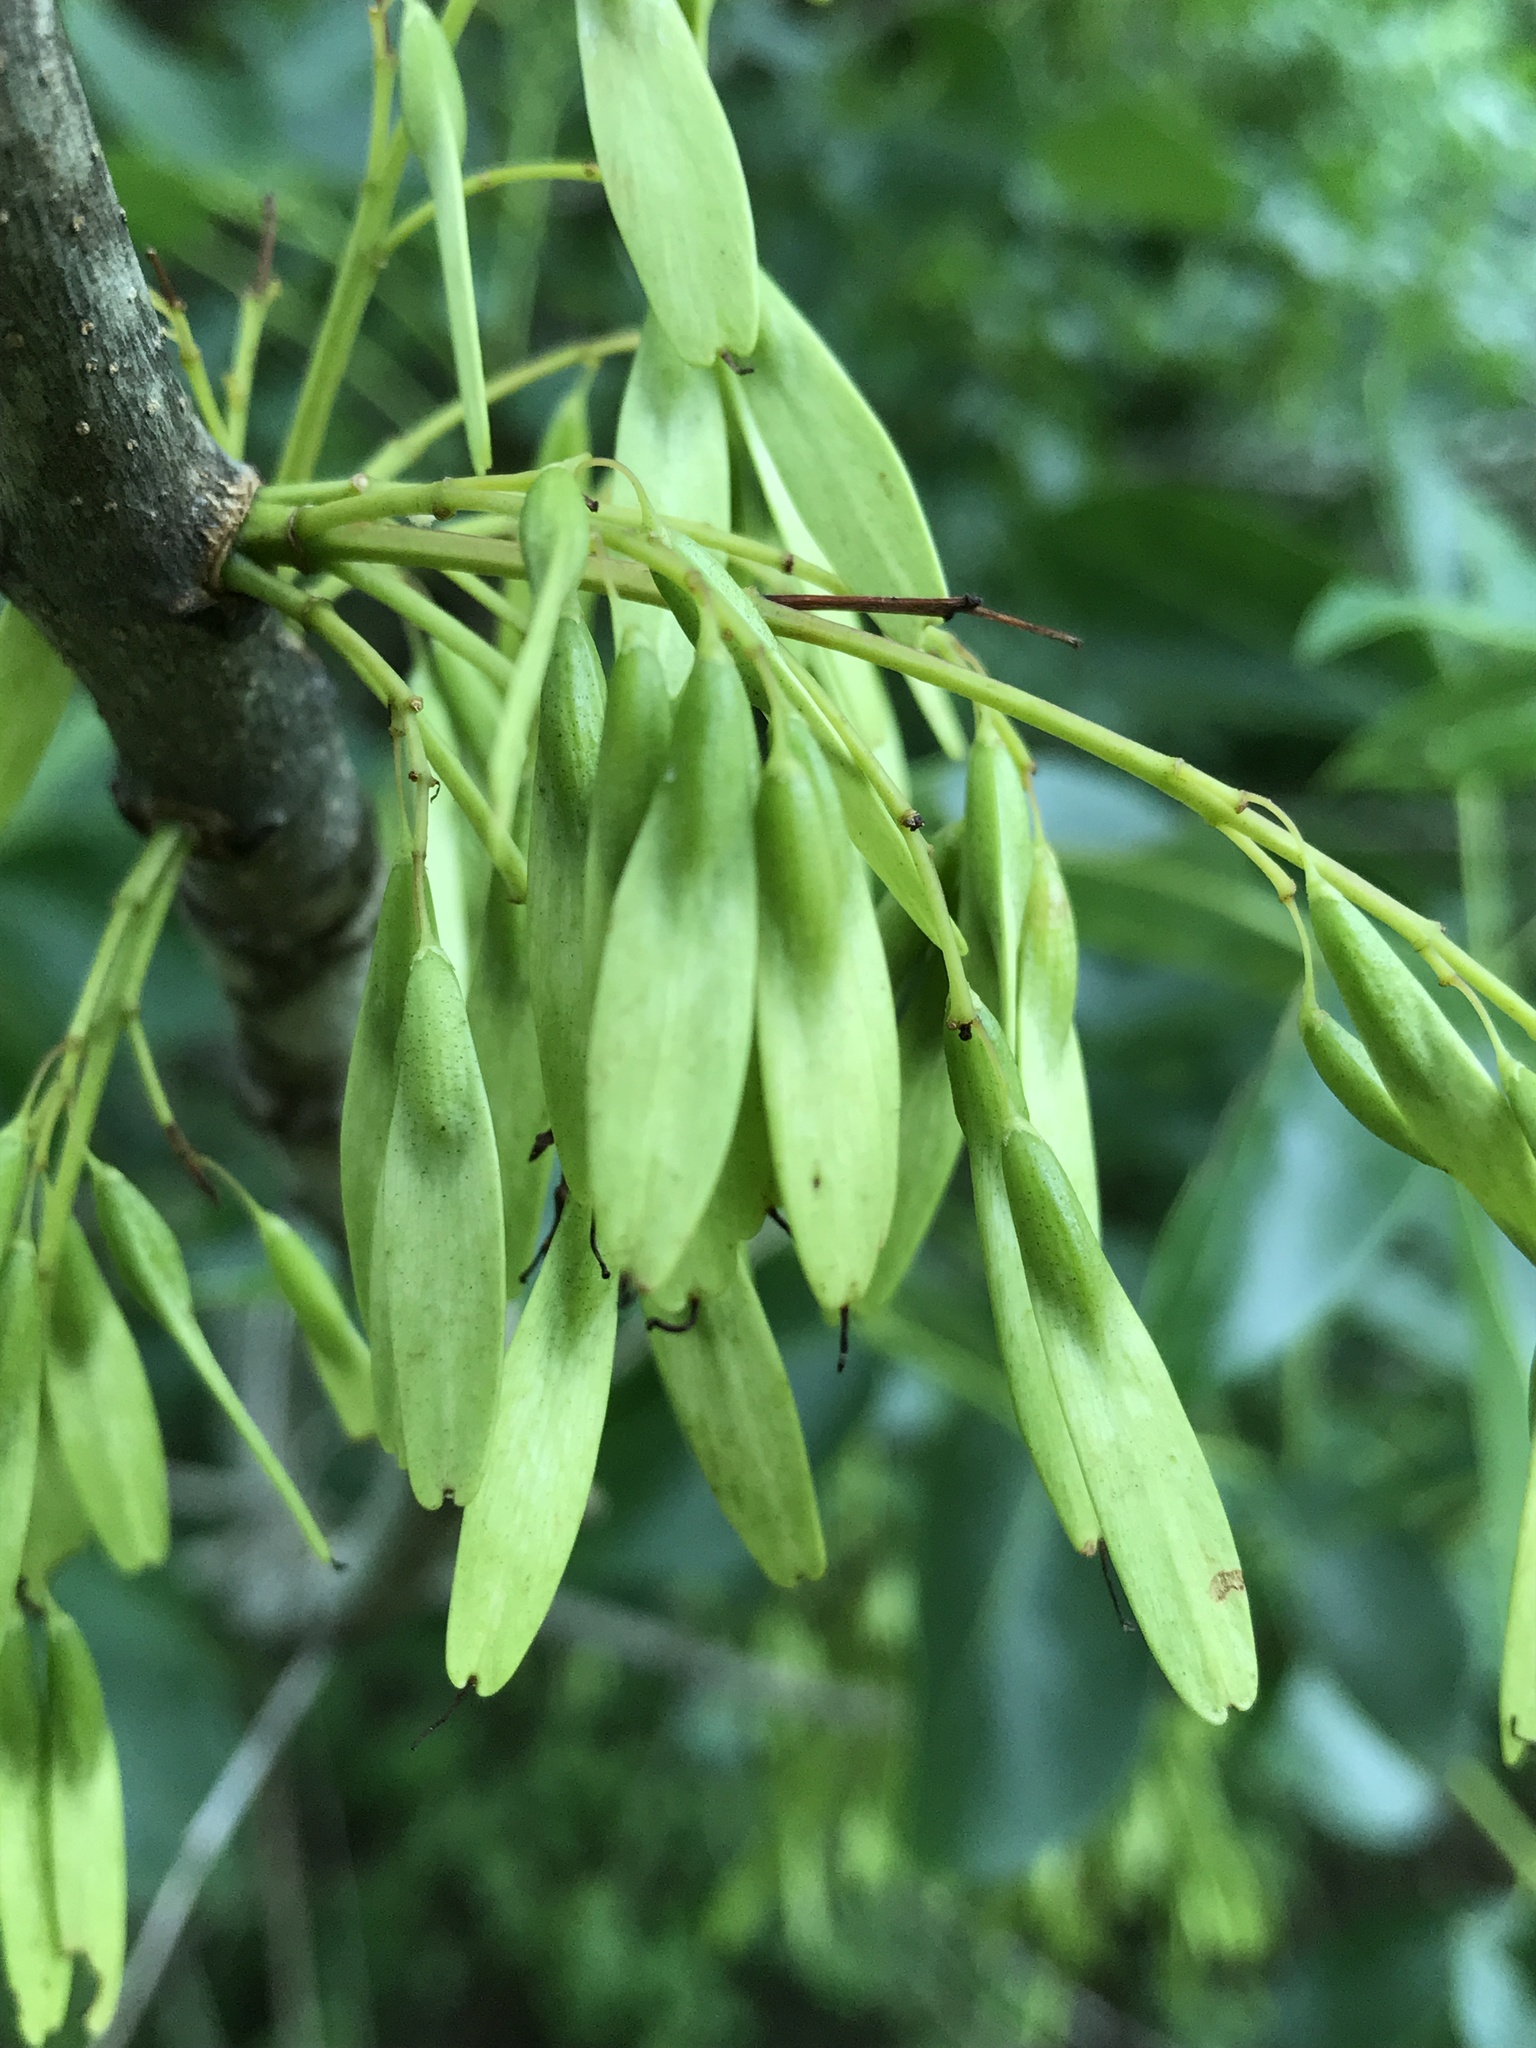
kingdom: Plantae
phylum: Tracheophyta
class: Magnoliopsida
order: Lamiales
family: Oleaceae
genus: Fraxinus
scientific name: Fraxinus albicans
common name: Texas ash
